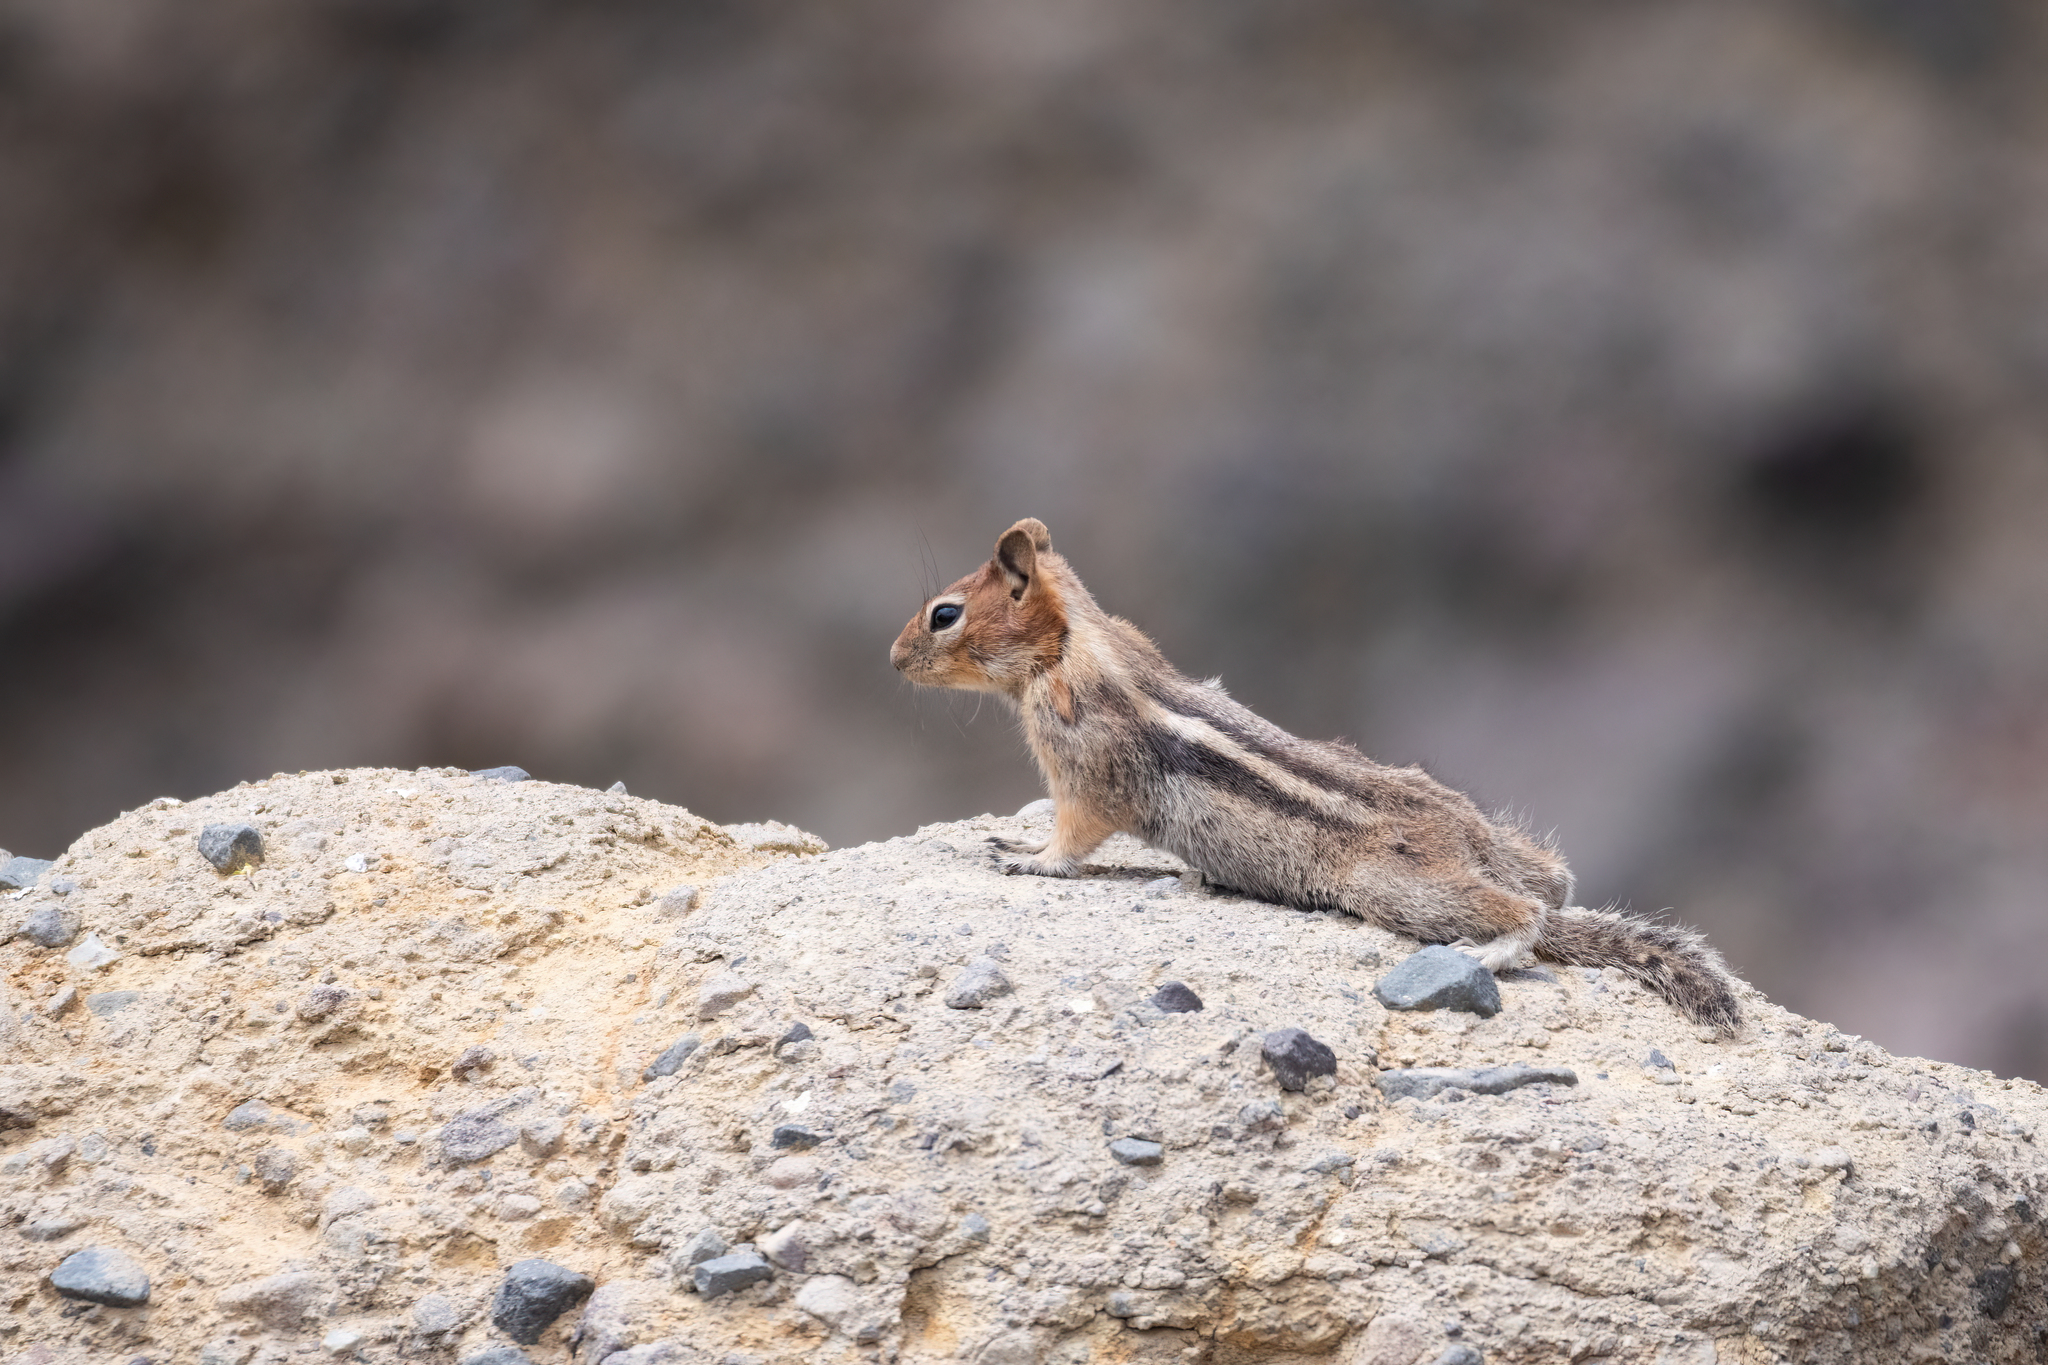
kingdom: Animalia
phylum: Chordata
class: Mammalia
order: Rodentia
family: Sciuridae
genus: Callospermophilus
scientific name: Callospermophilus lateralis
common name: Golden-mantled ground squirrel
